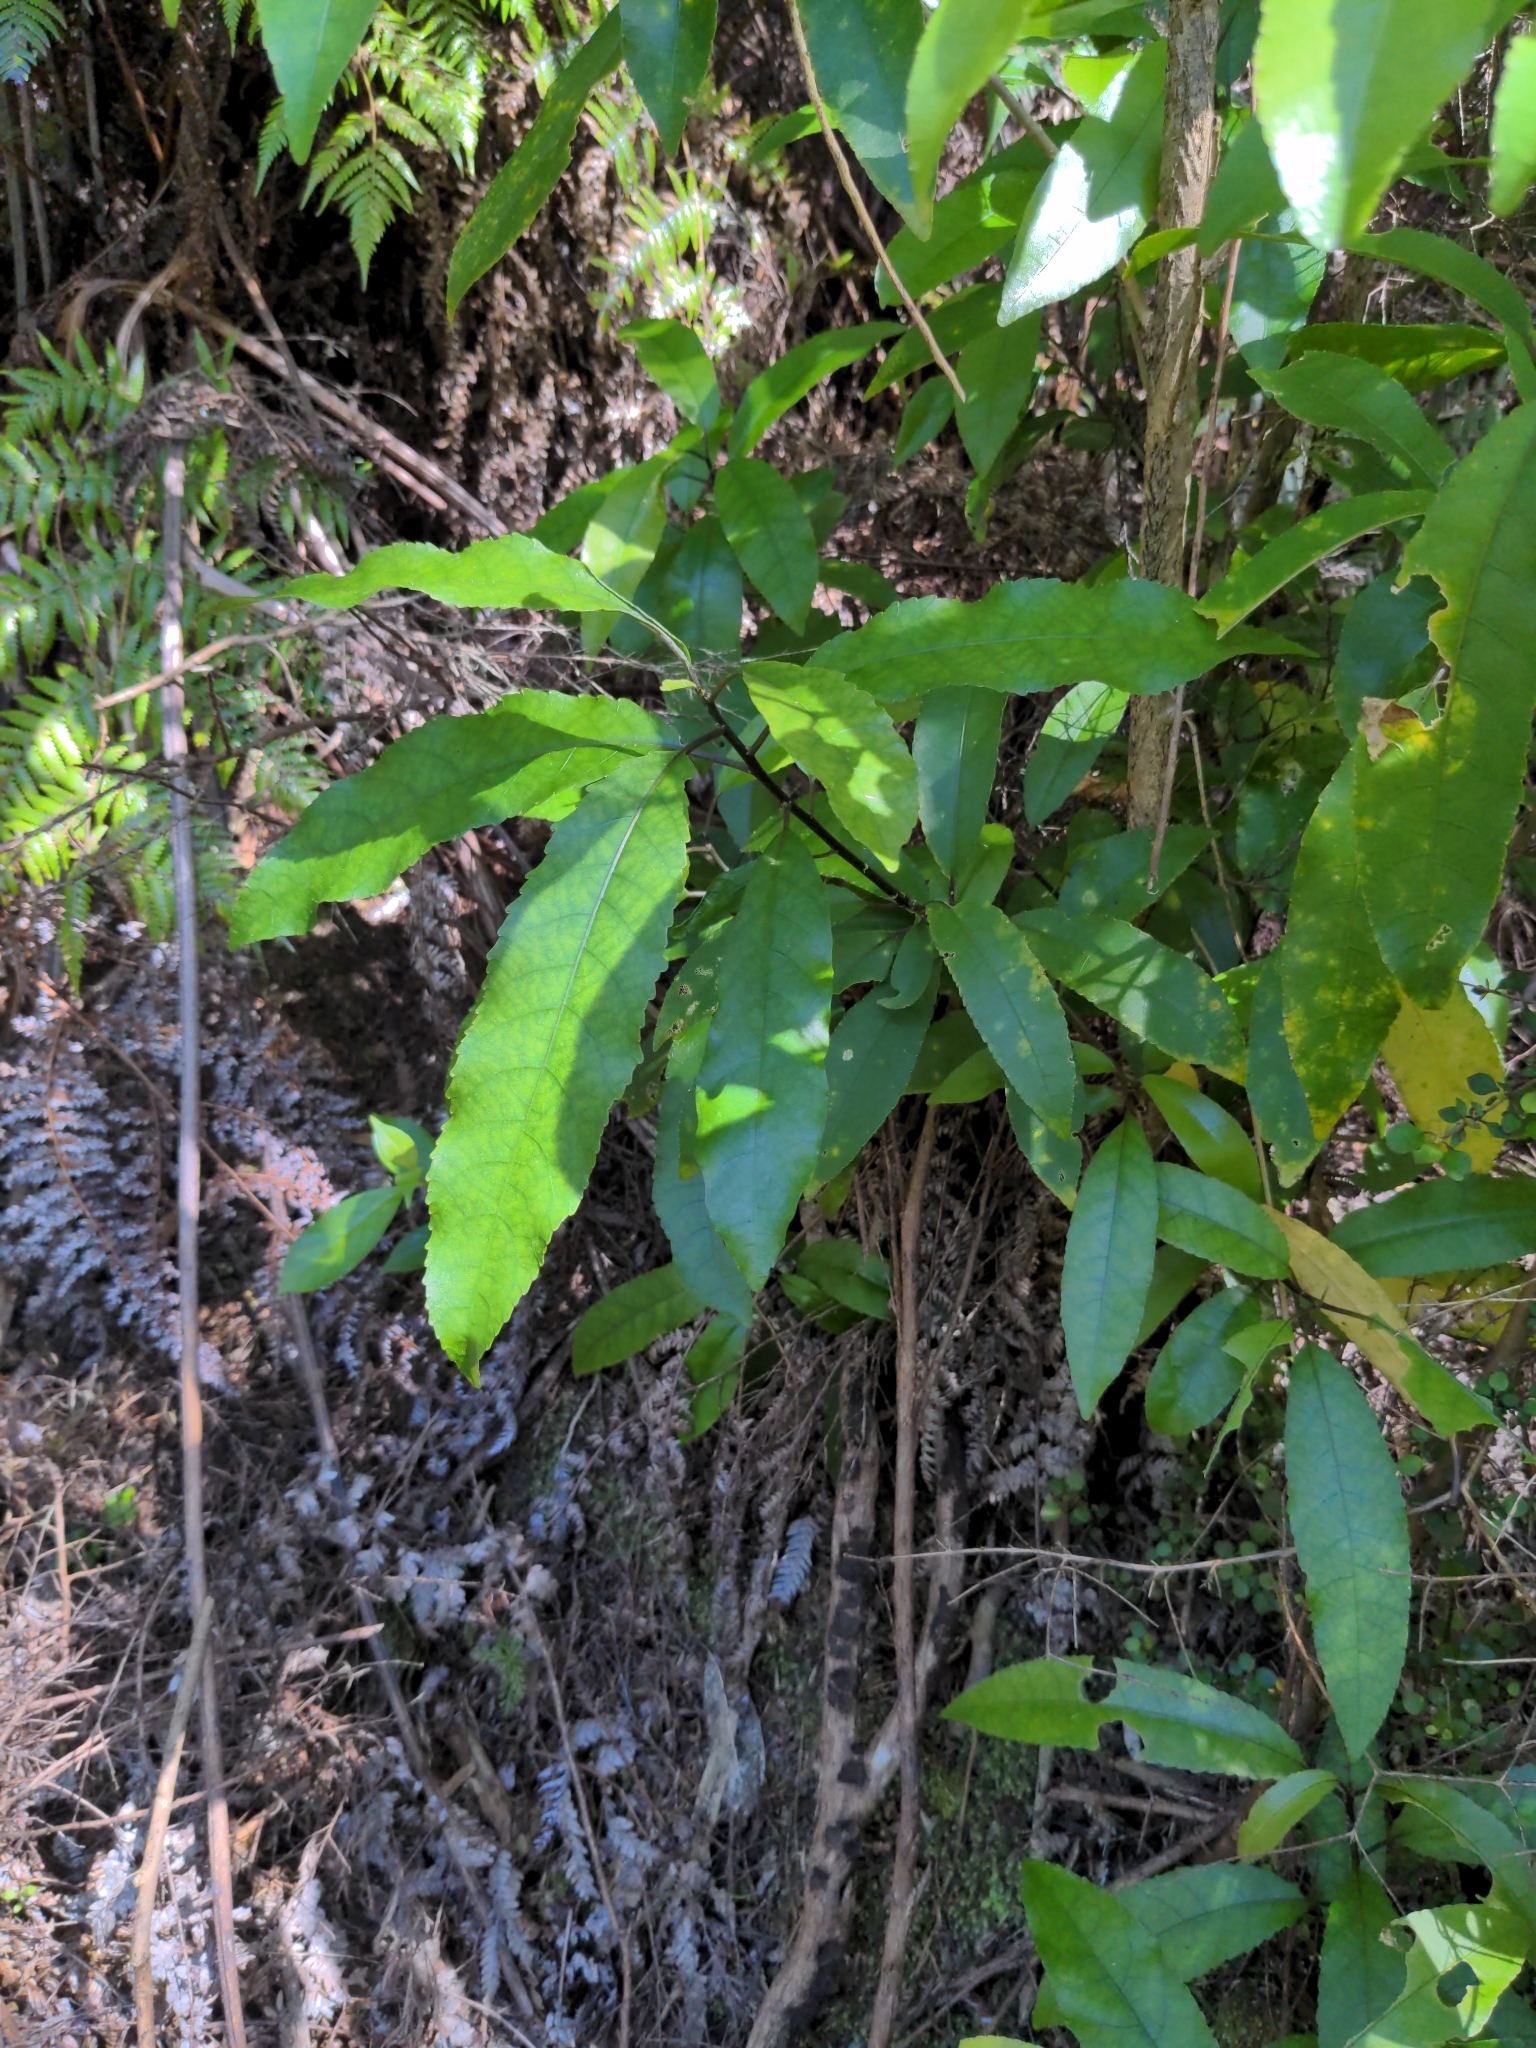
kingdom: Plantae
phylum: Tracheophyta
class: Magnoliopsida
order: Malpighiales
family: Violaceae
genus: Melicytus
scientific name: Melicytus ramiflorus
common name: Mahoe
